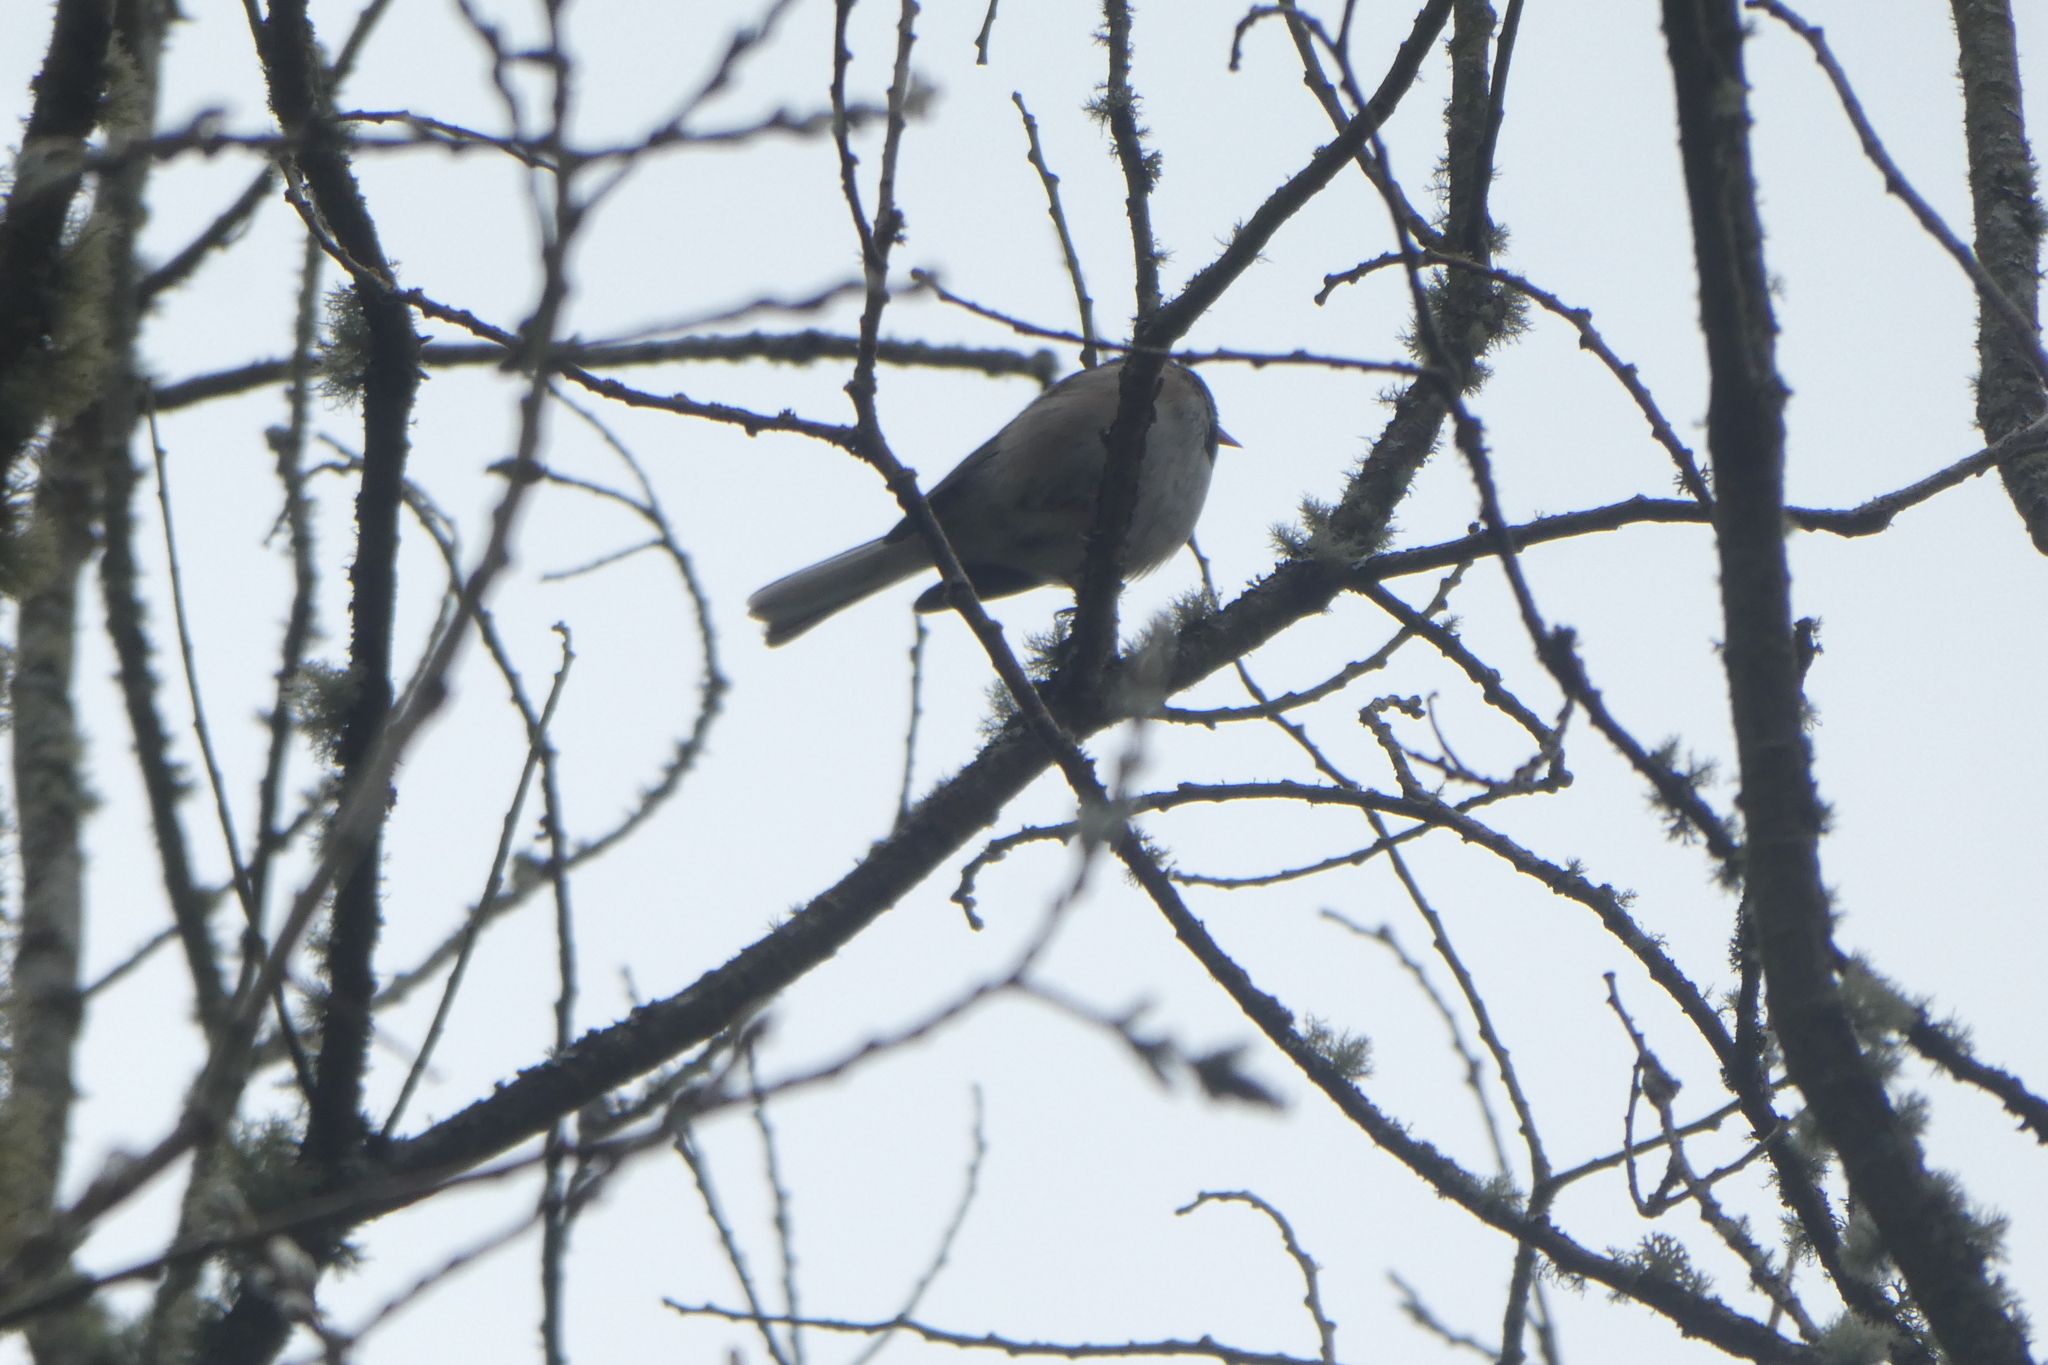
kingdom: Animalia
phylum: Chordata
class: Aves
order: Passeriformes
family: Passerellidae
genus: Junco
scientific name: Junco hyemalis
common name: Dark-eyed junco
